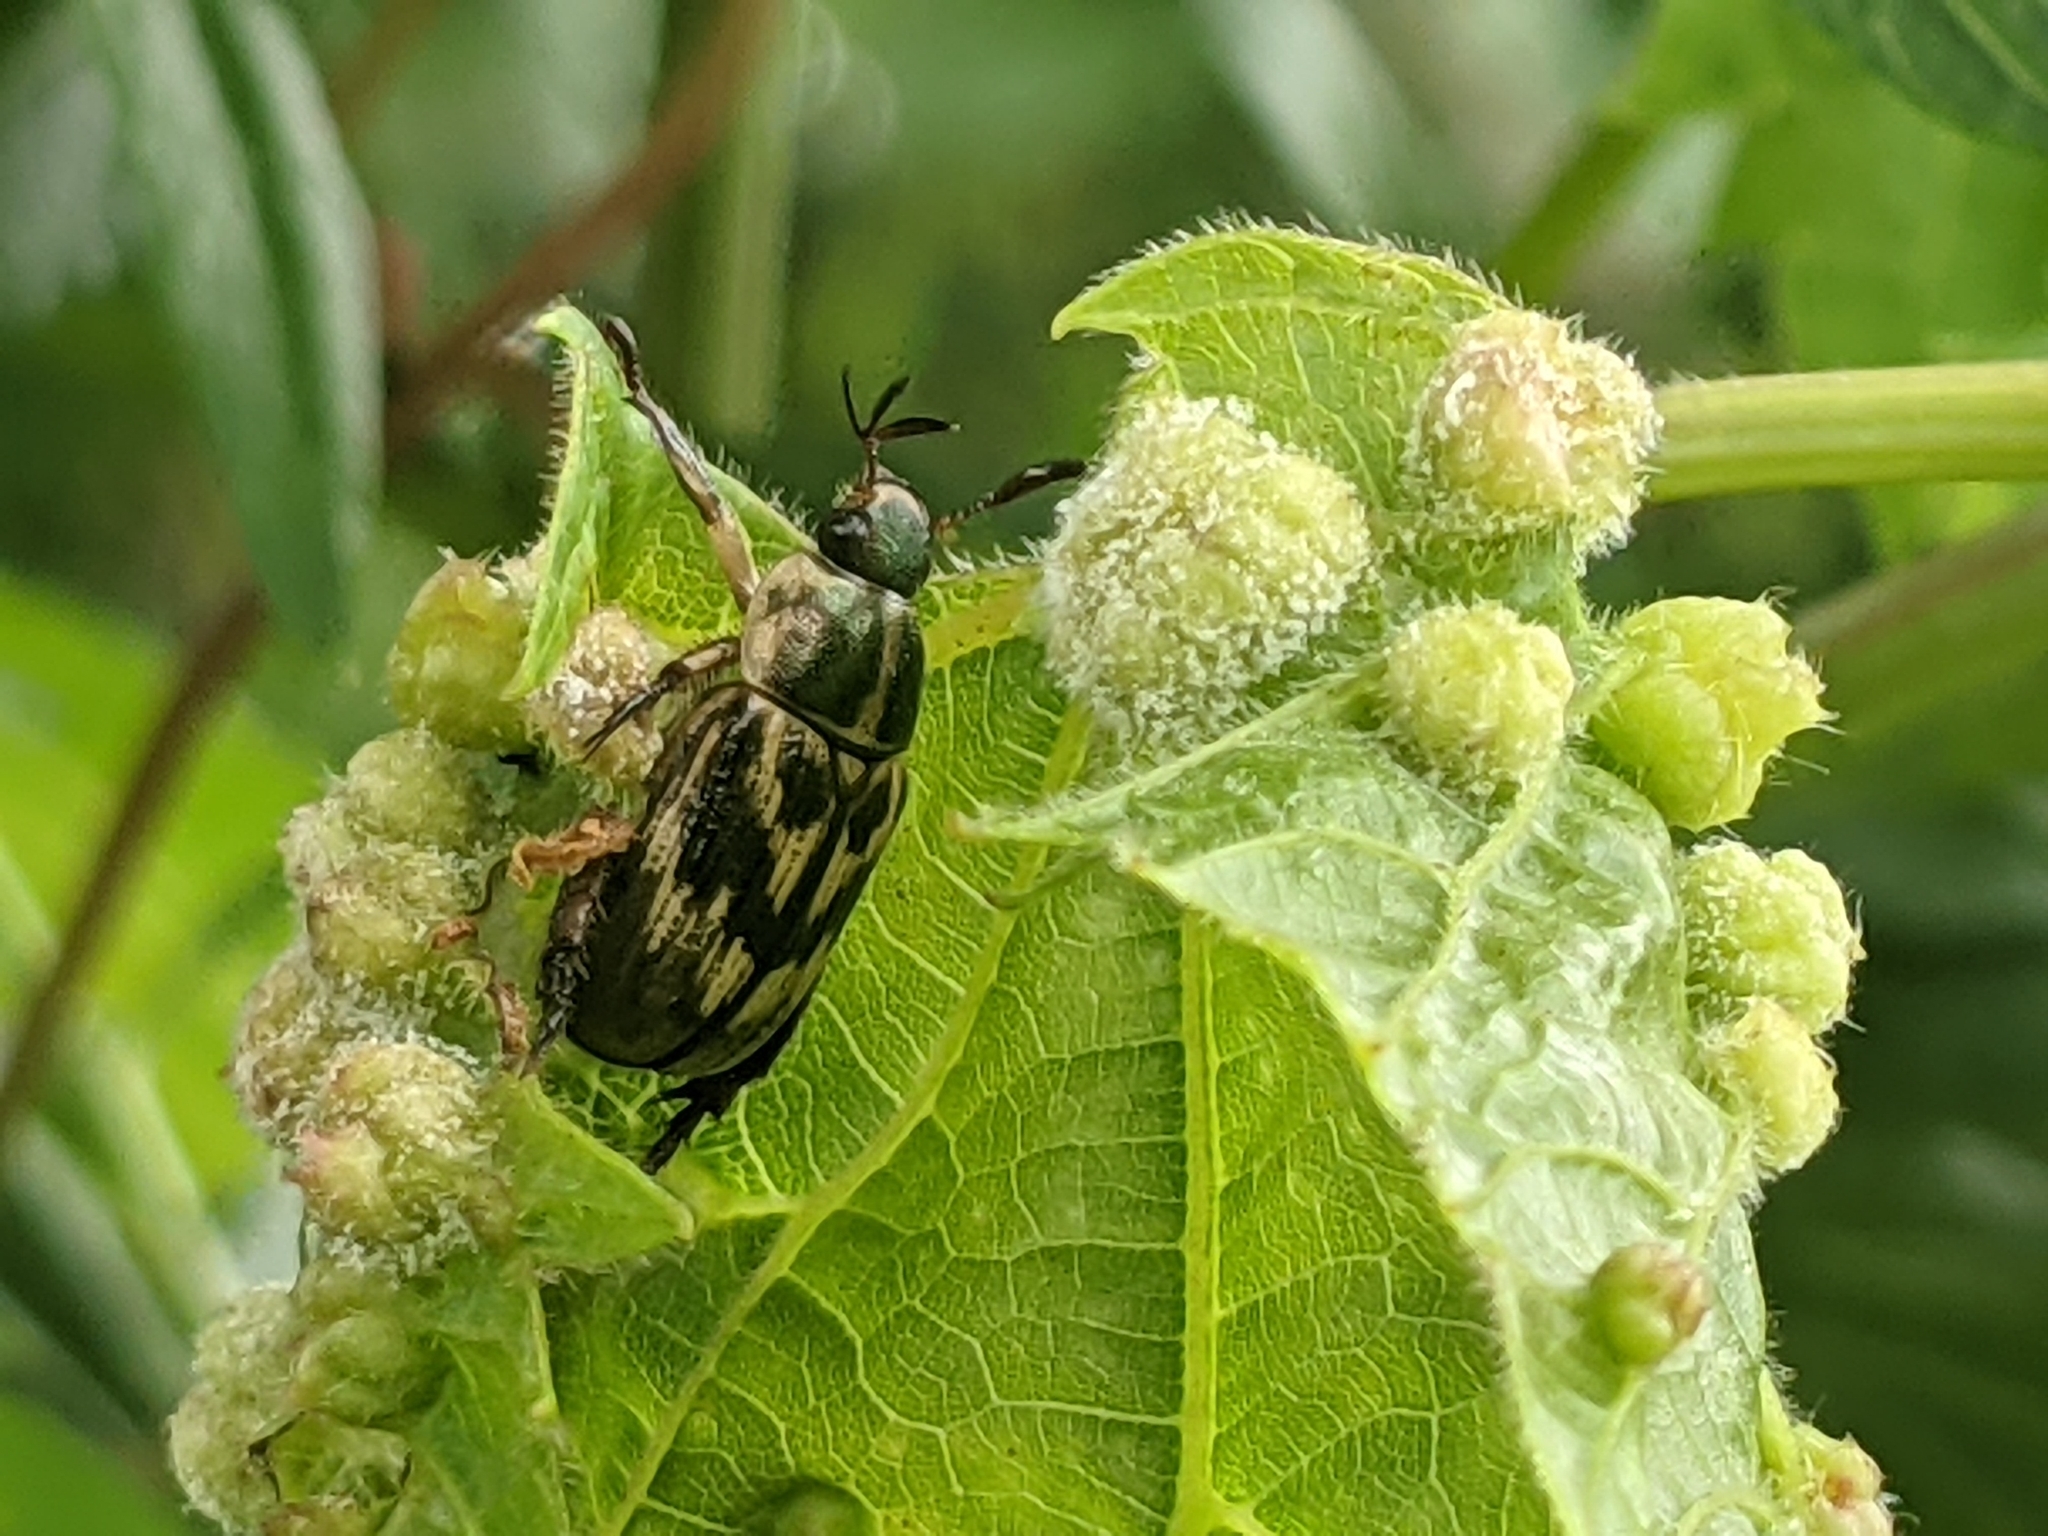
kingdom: Animalia
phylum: Arthropoda
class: Insecta
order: Coleoptera
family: Scarabaeidae
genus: Exomala
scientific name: Exomala orientalis
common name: Oriental beetle
